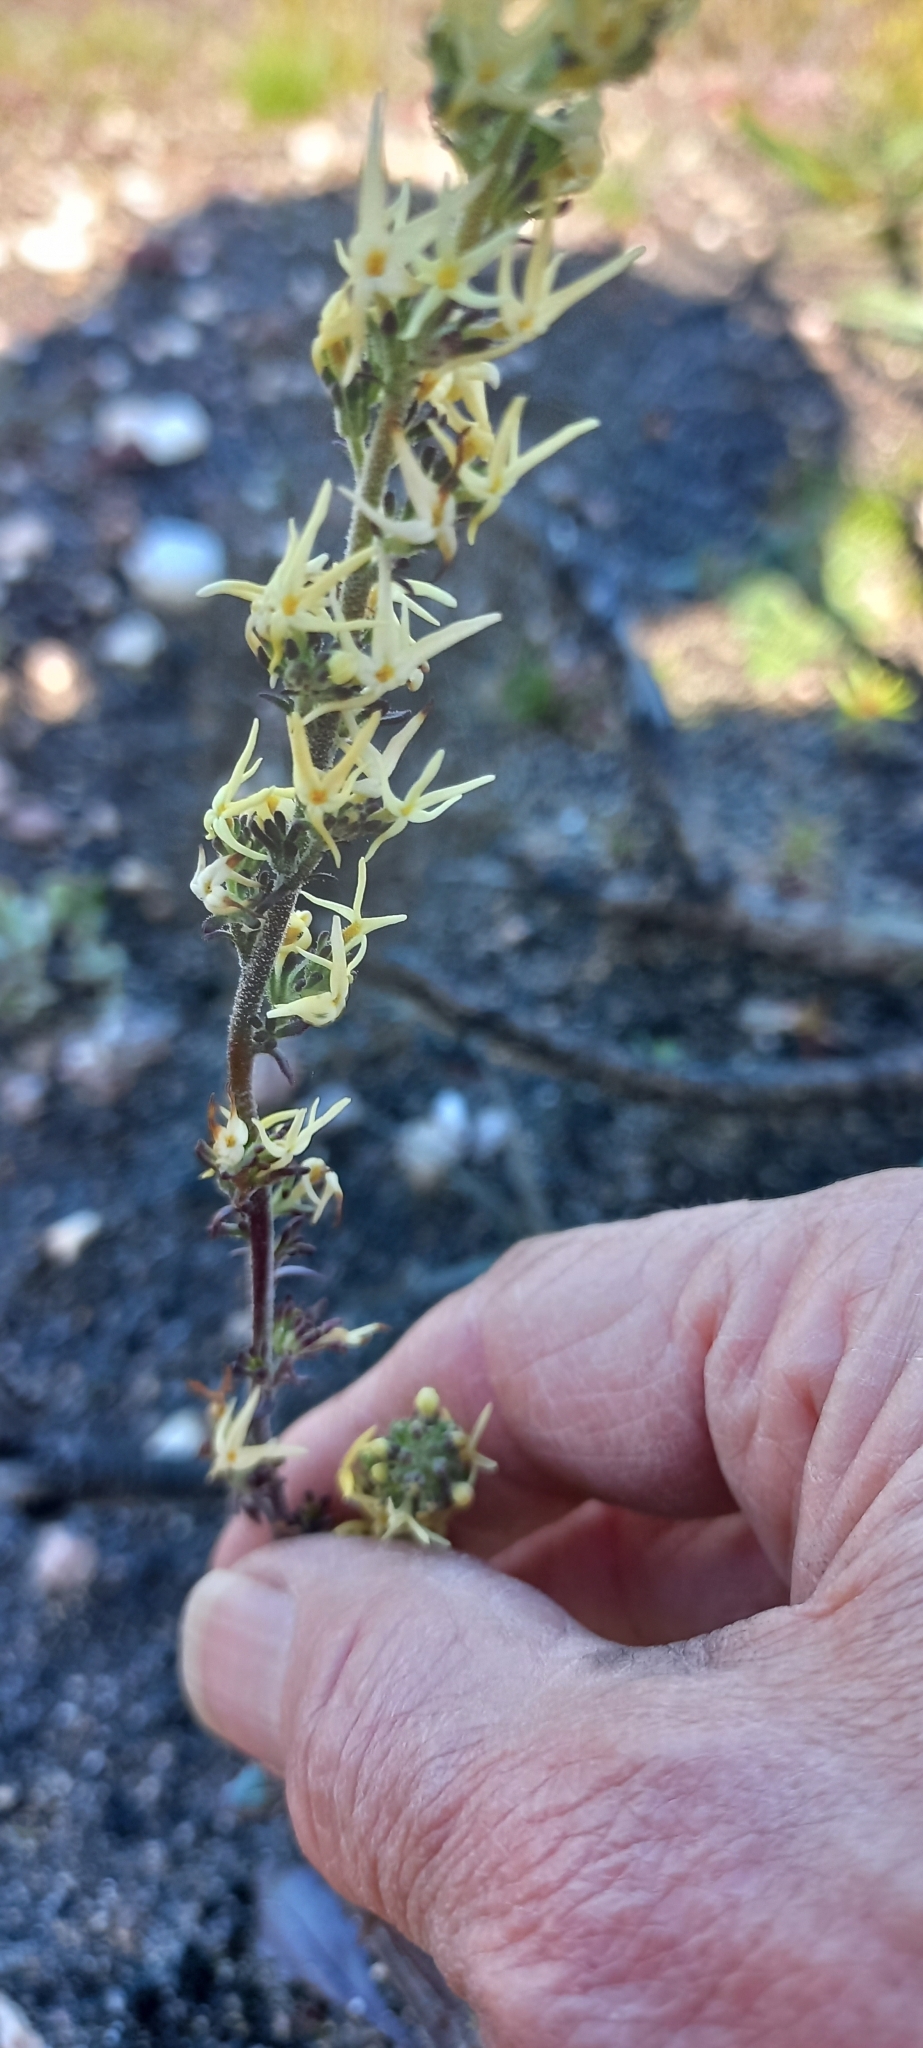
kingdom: Plantae
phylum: Tracheophyta
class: Magnoliopsida
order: Lamiales
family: Scrophulariaceae
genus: Manulea
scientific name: Manulea cheiranthus
